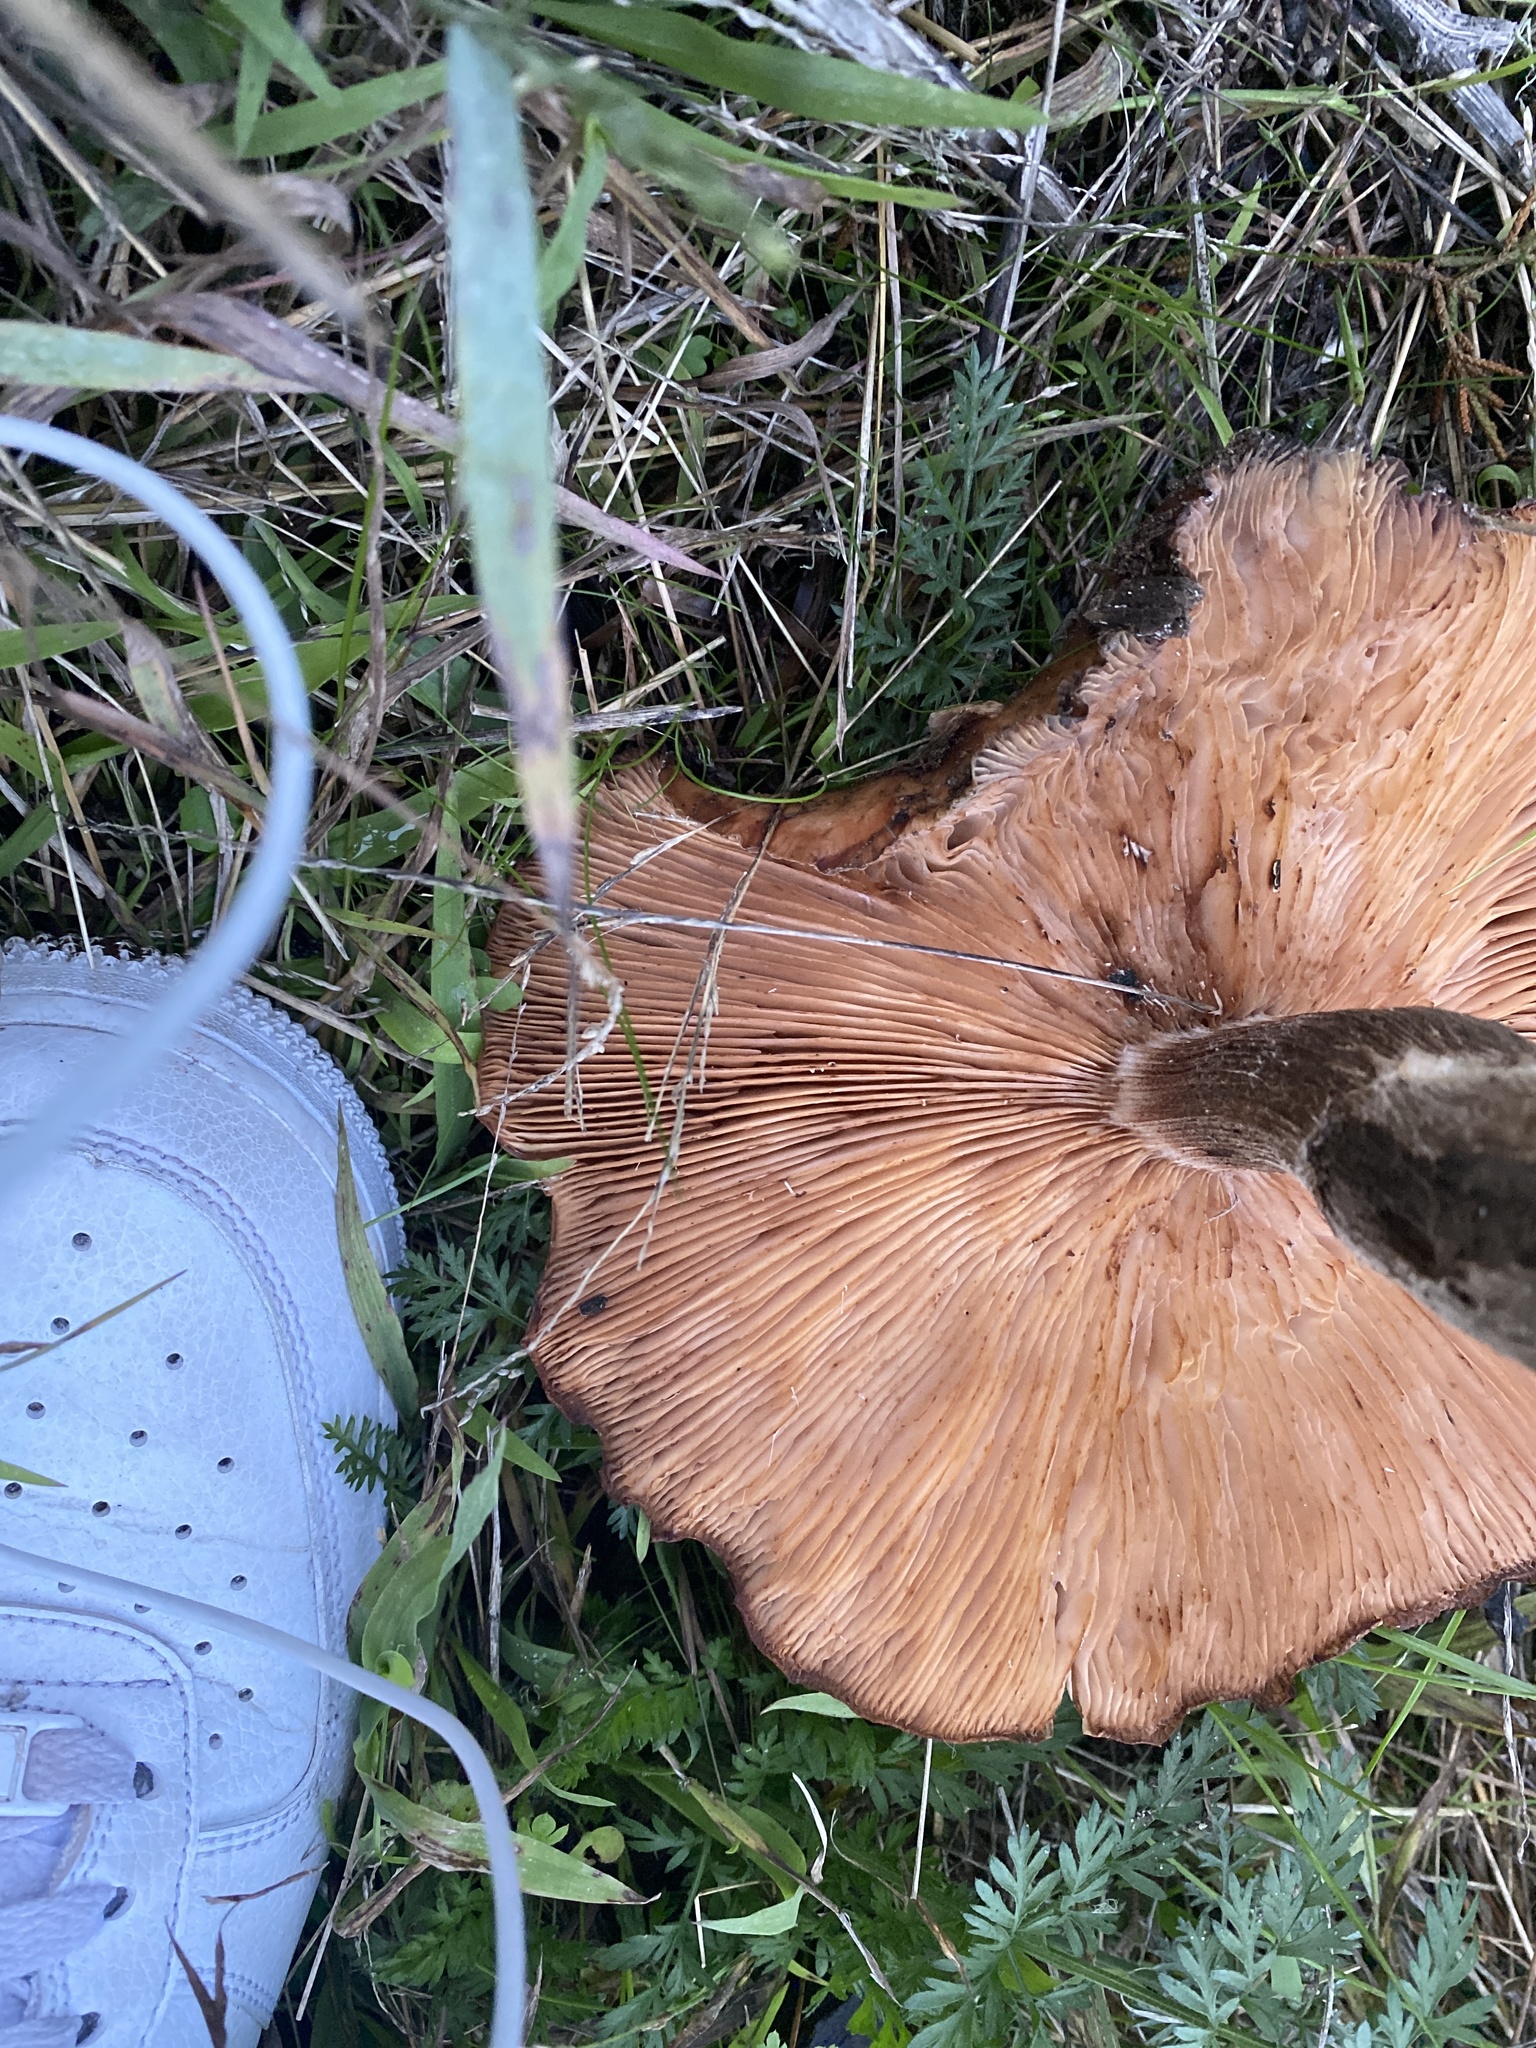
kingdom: Fungi
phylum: Basidiomycota
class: Agaricomycetes
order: Agaricales
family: Physalacriaceae
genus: Armillaria
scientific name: Armillaria mellea
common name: Honey fungus
